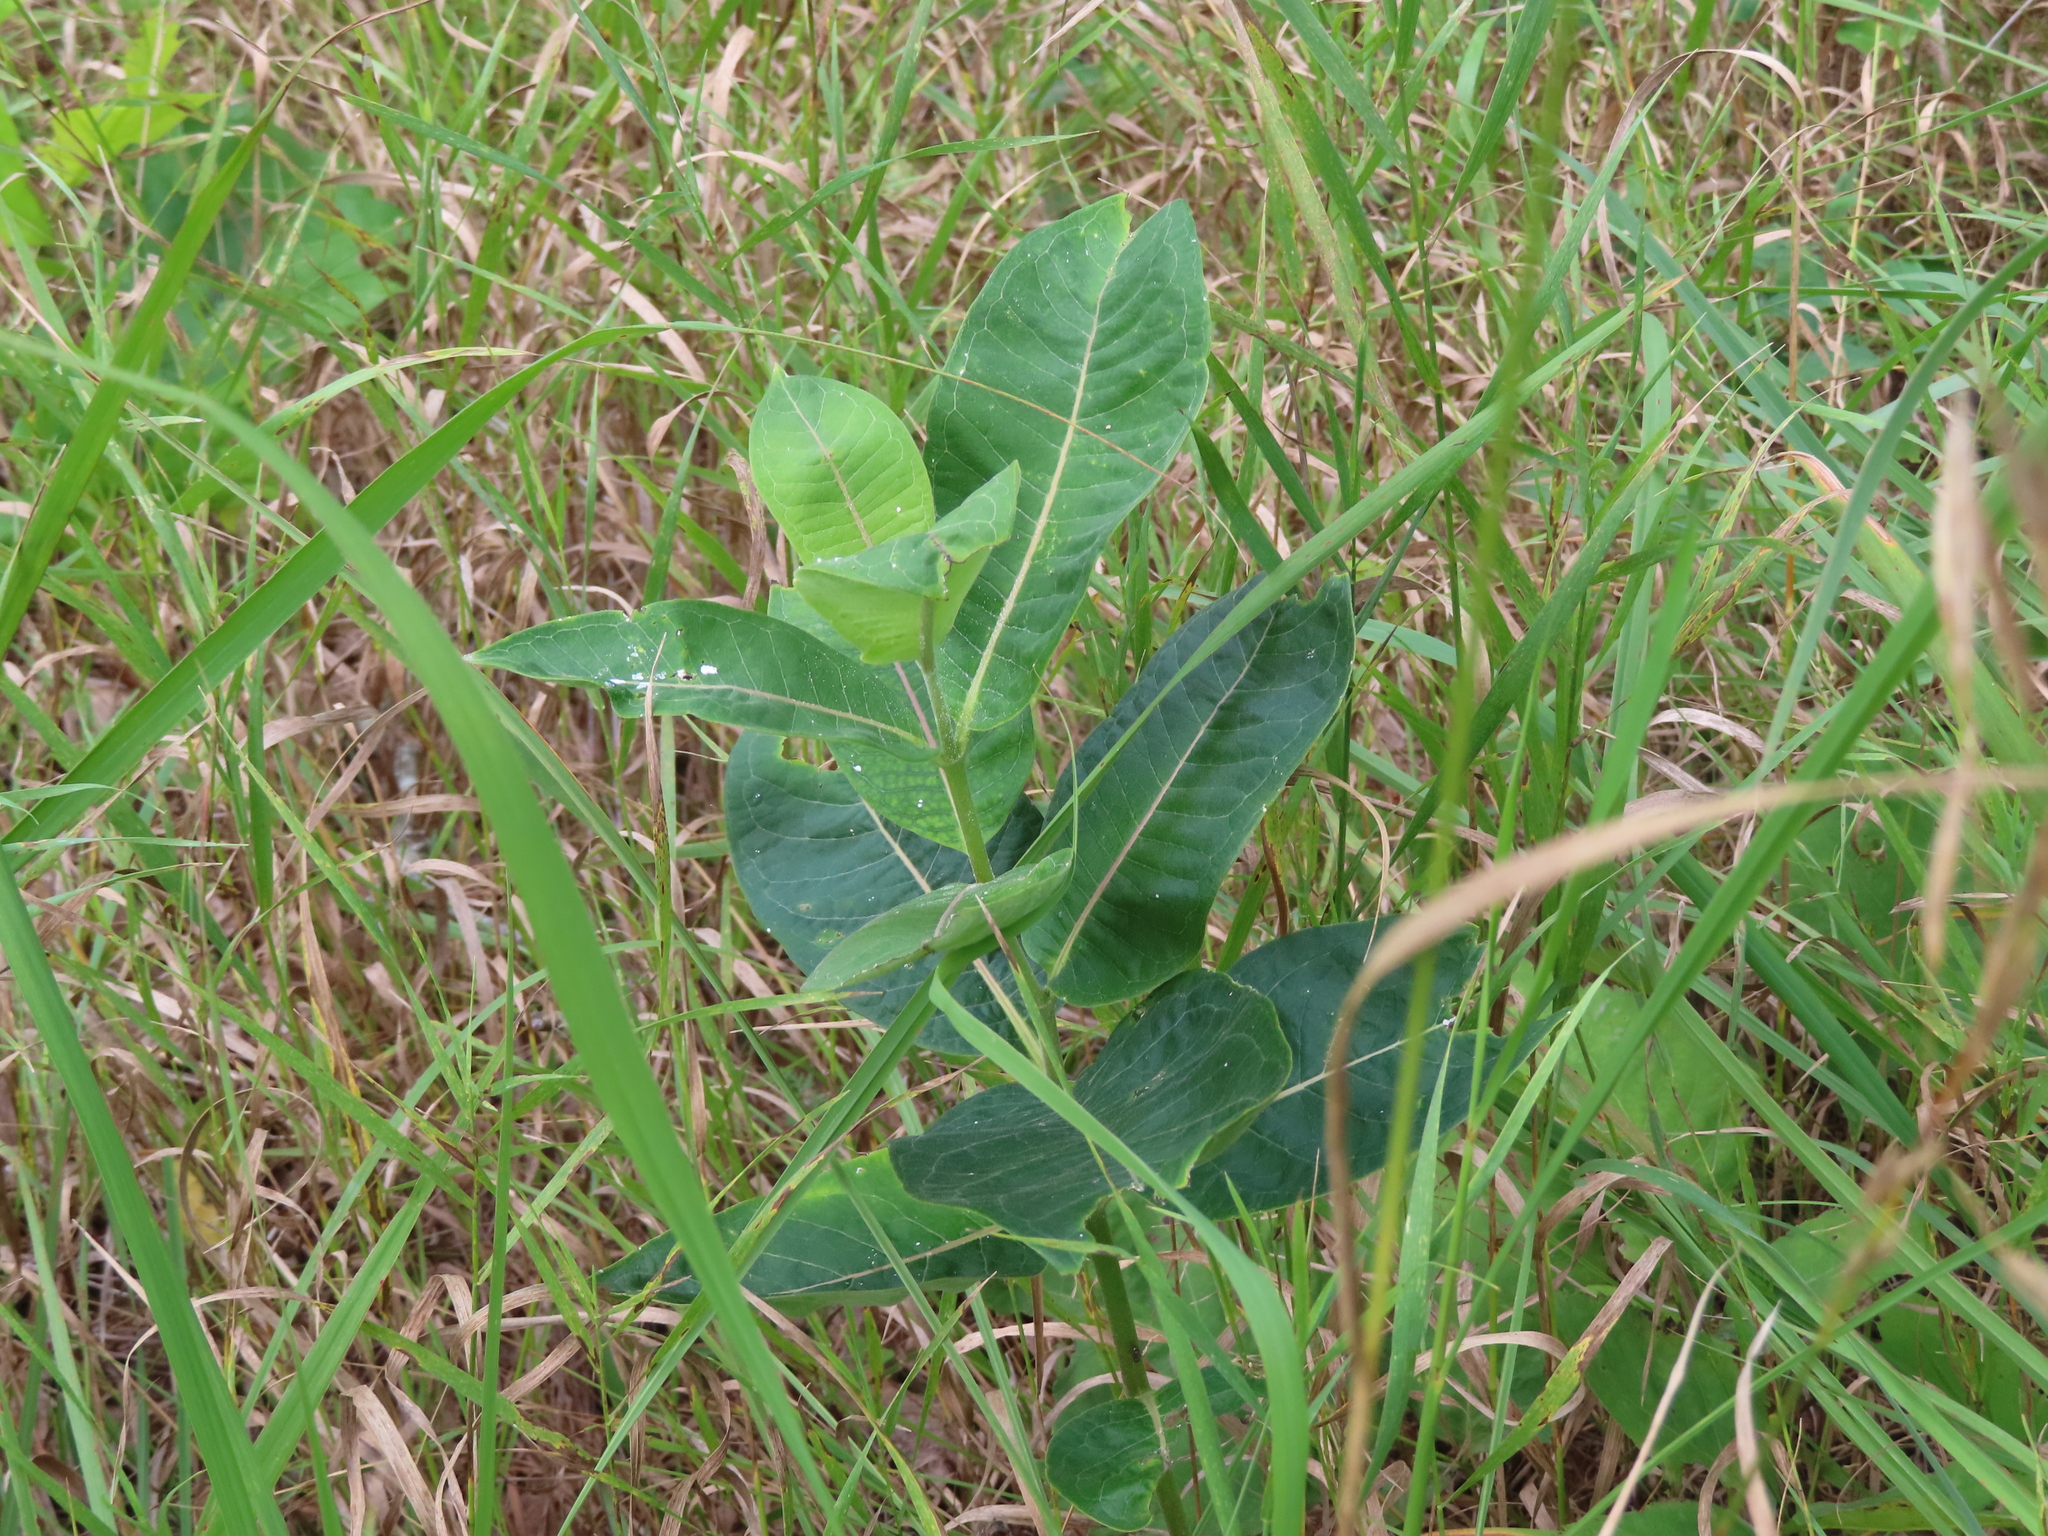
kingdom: Plantae
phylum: Tracheophyta
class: Magnoliopsida
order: Gentianales
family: Apocynaceae
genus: Asclepias
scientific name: Asclepias syriaca
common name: Common milkweed
